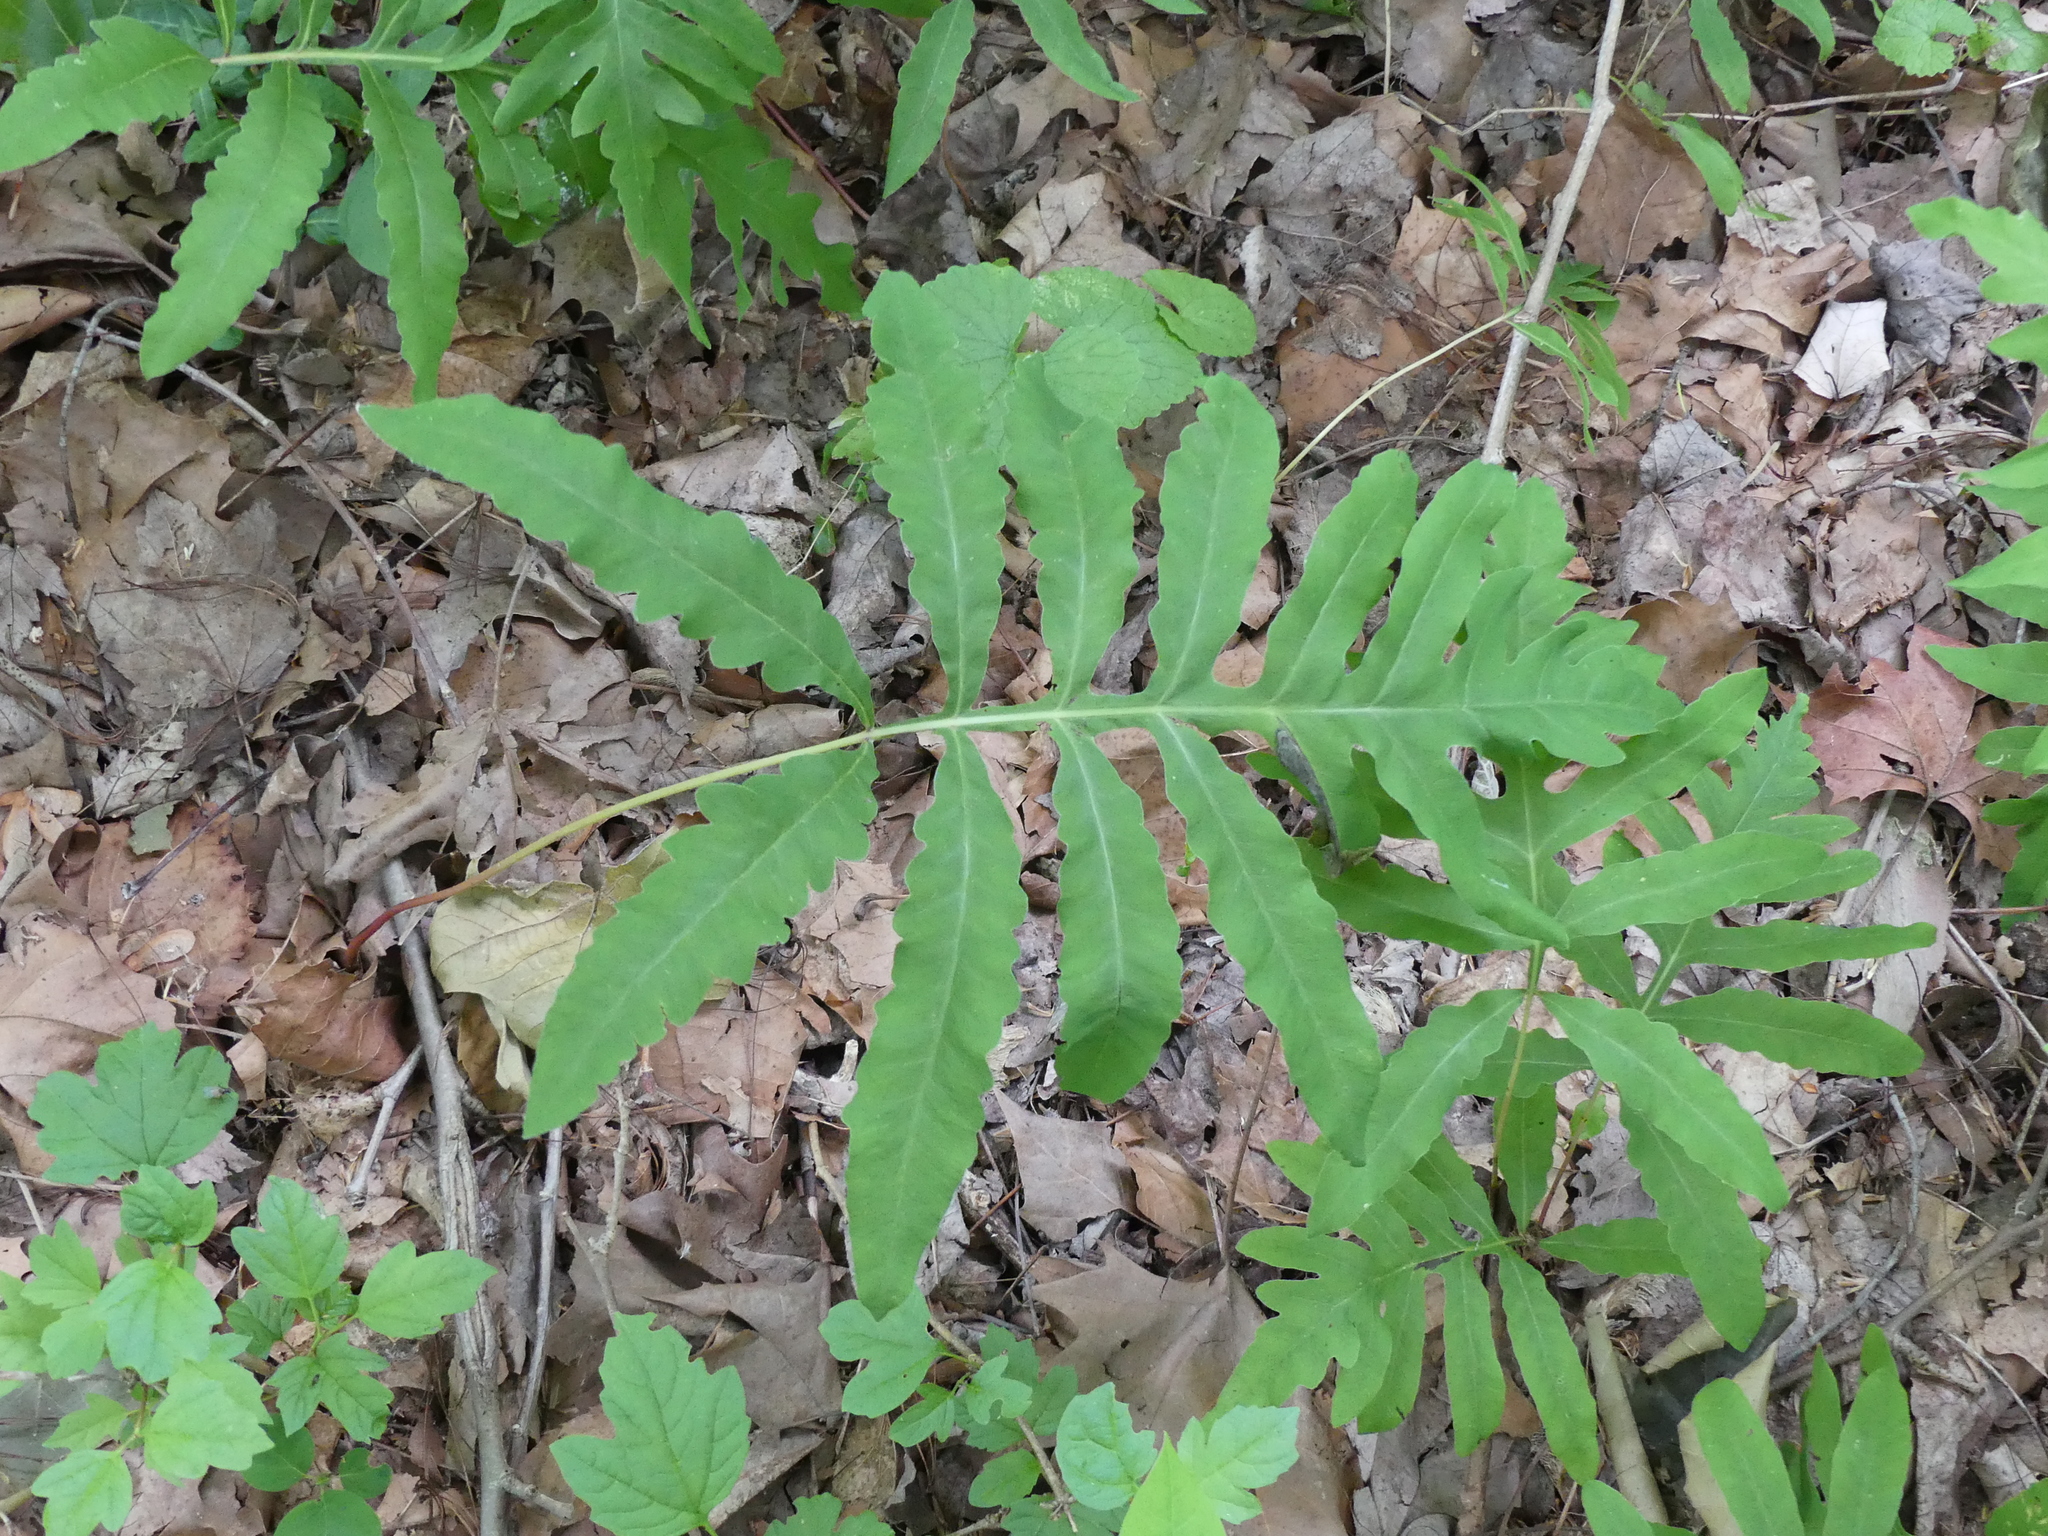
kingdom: Plantae
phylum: Tracheophyta
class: Polypodiopsida
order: Polypodiales
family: Onocleaceae
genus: Onoclea
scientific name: Onoclea sensibilis
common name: Sensitive fern
